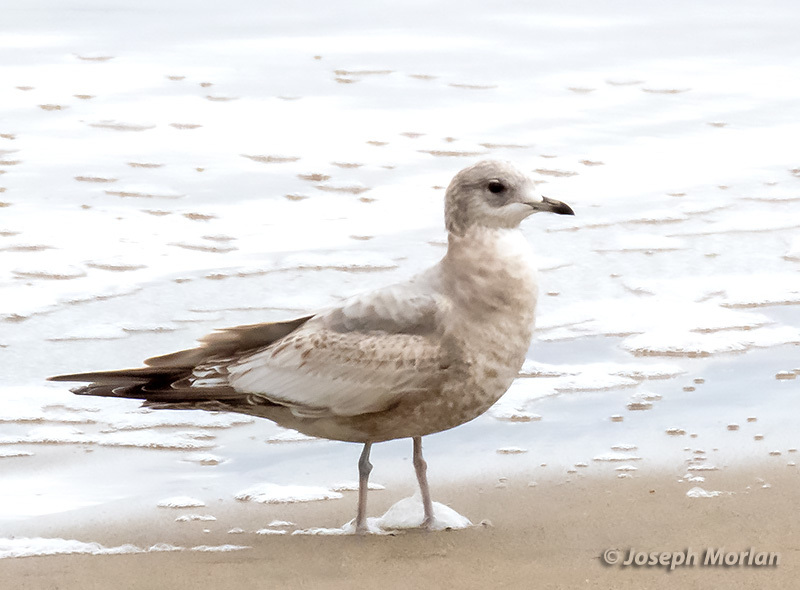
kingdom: Animalia
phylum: Chordata
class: Aves
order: Charadriiformes
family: Laridae
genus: Larus
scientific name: Larus brachyrhynchus
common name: Short-billed gull
